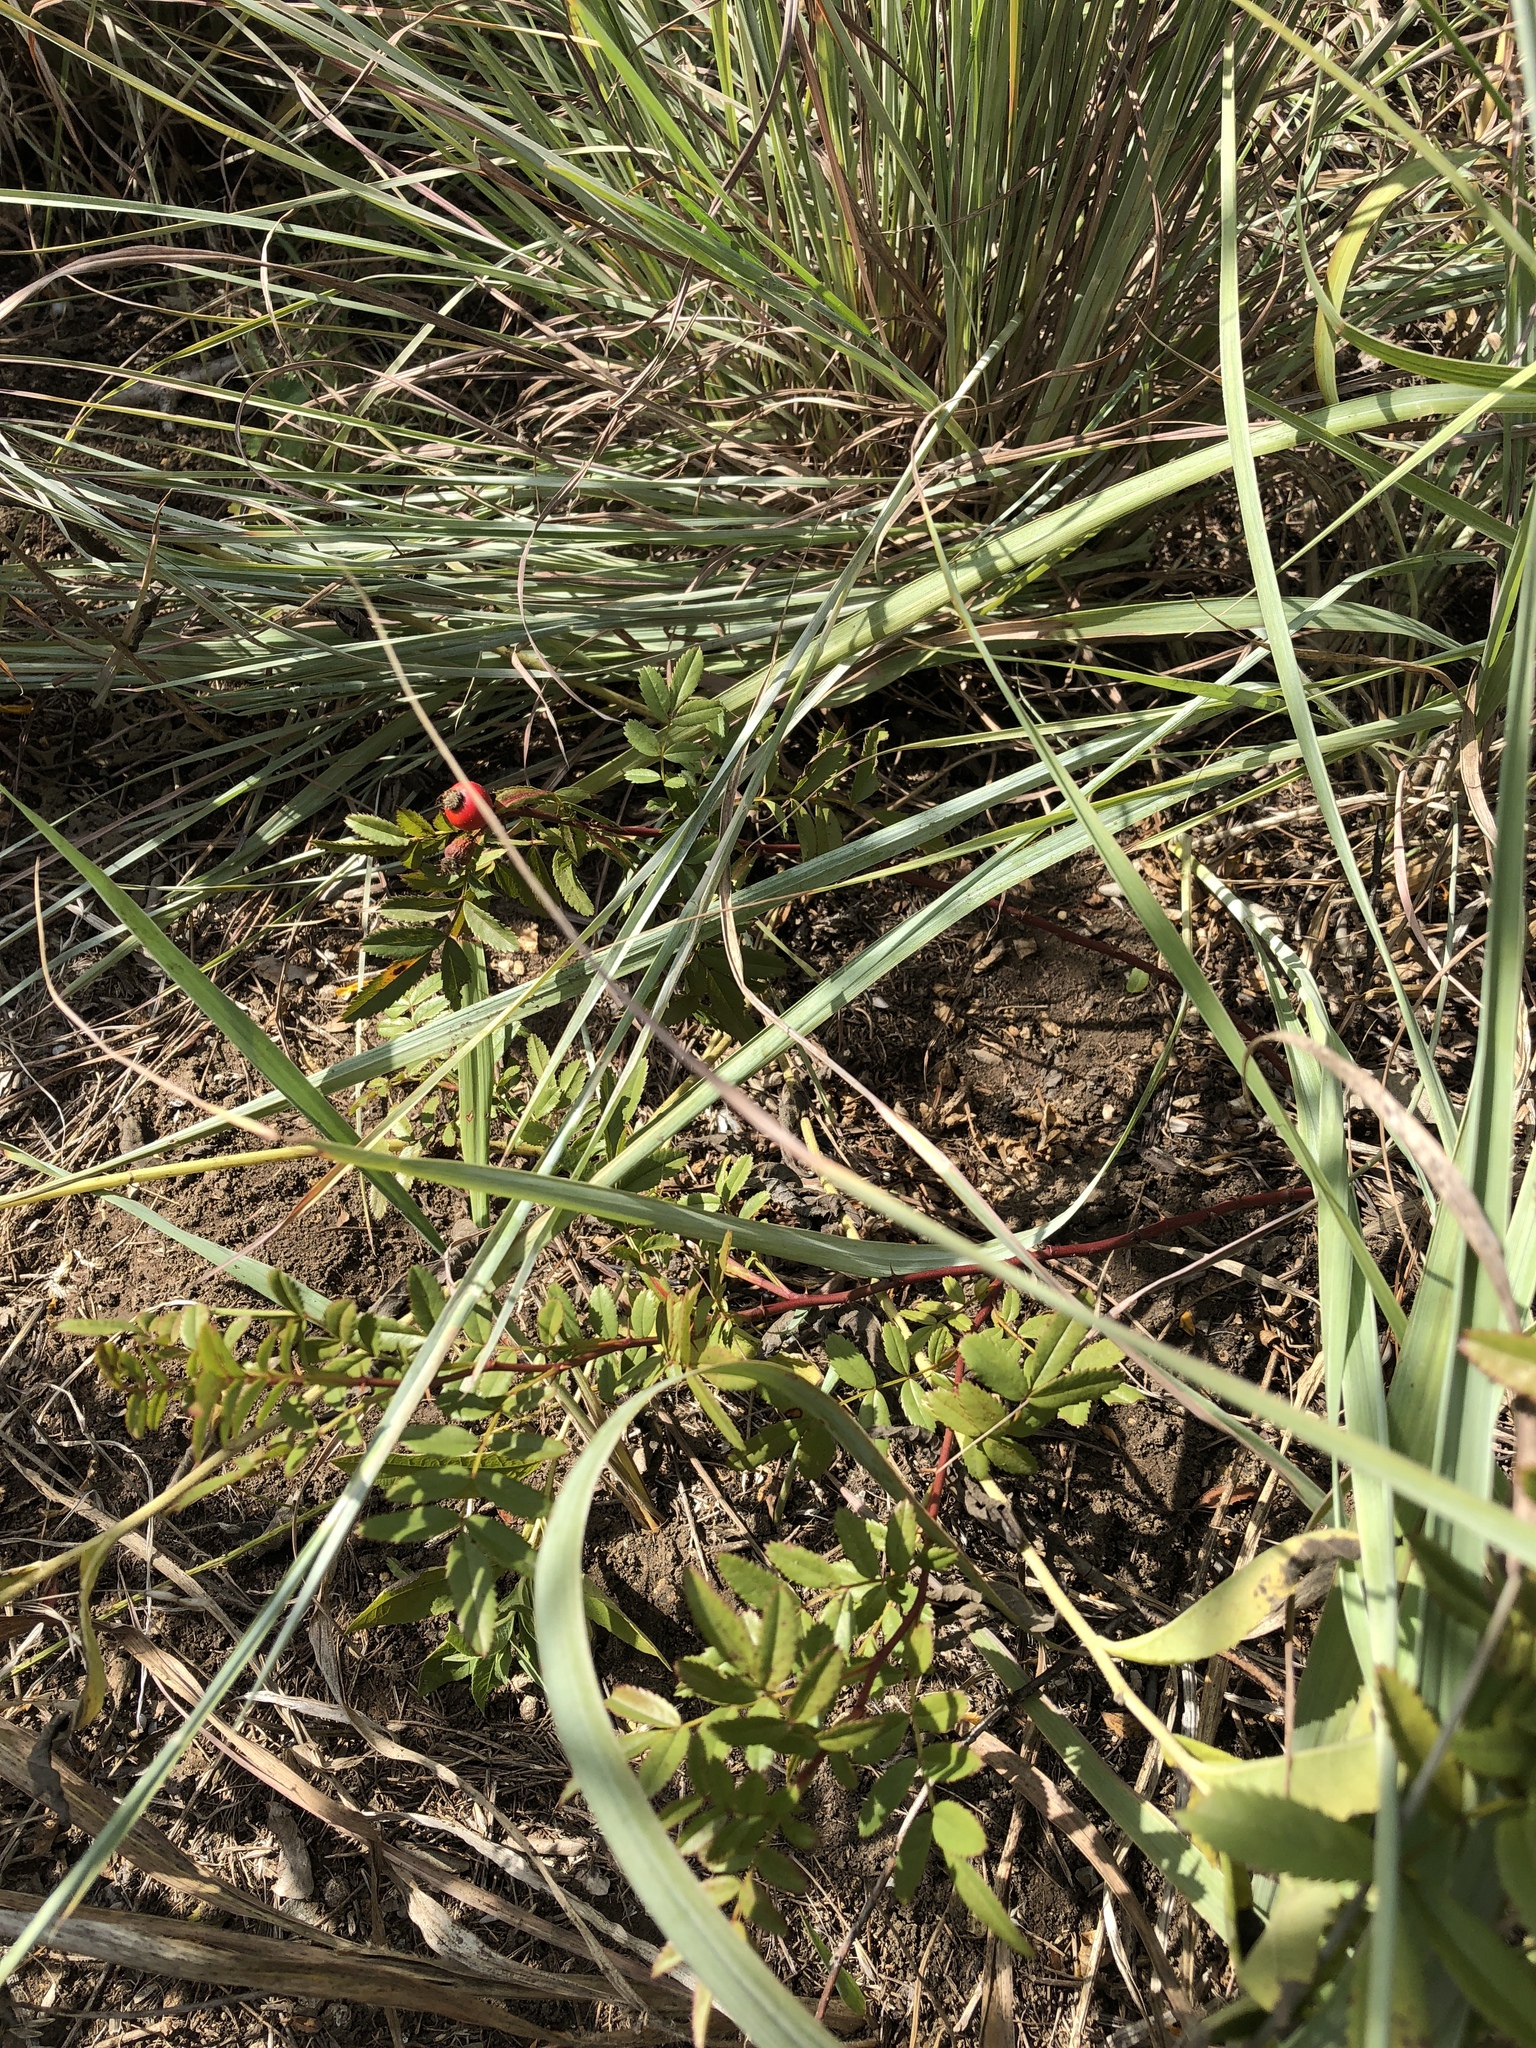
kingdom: Plantae
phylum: Tracheophyta
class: Magnoliopsida
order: Rosales
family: Rosaceae
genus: Rosa
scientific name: Rosa foliolosa
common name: White prairie rose
